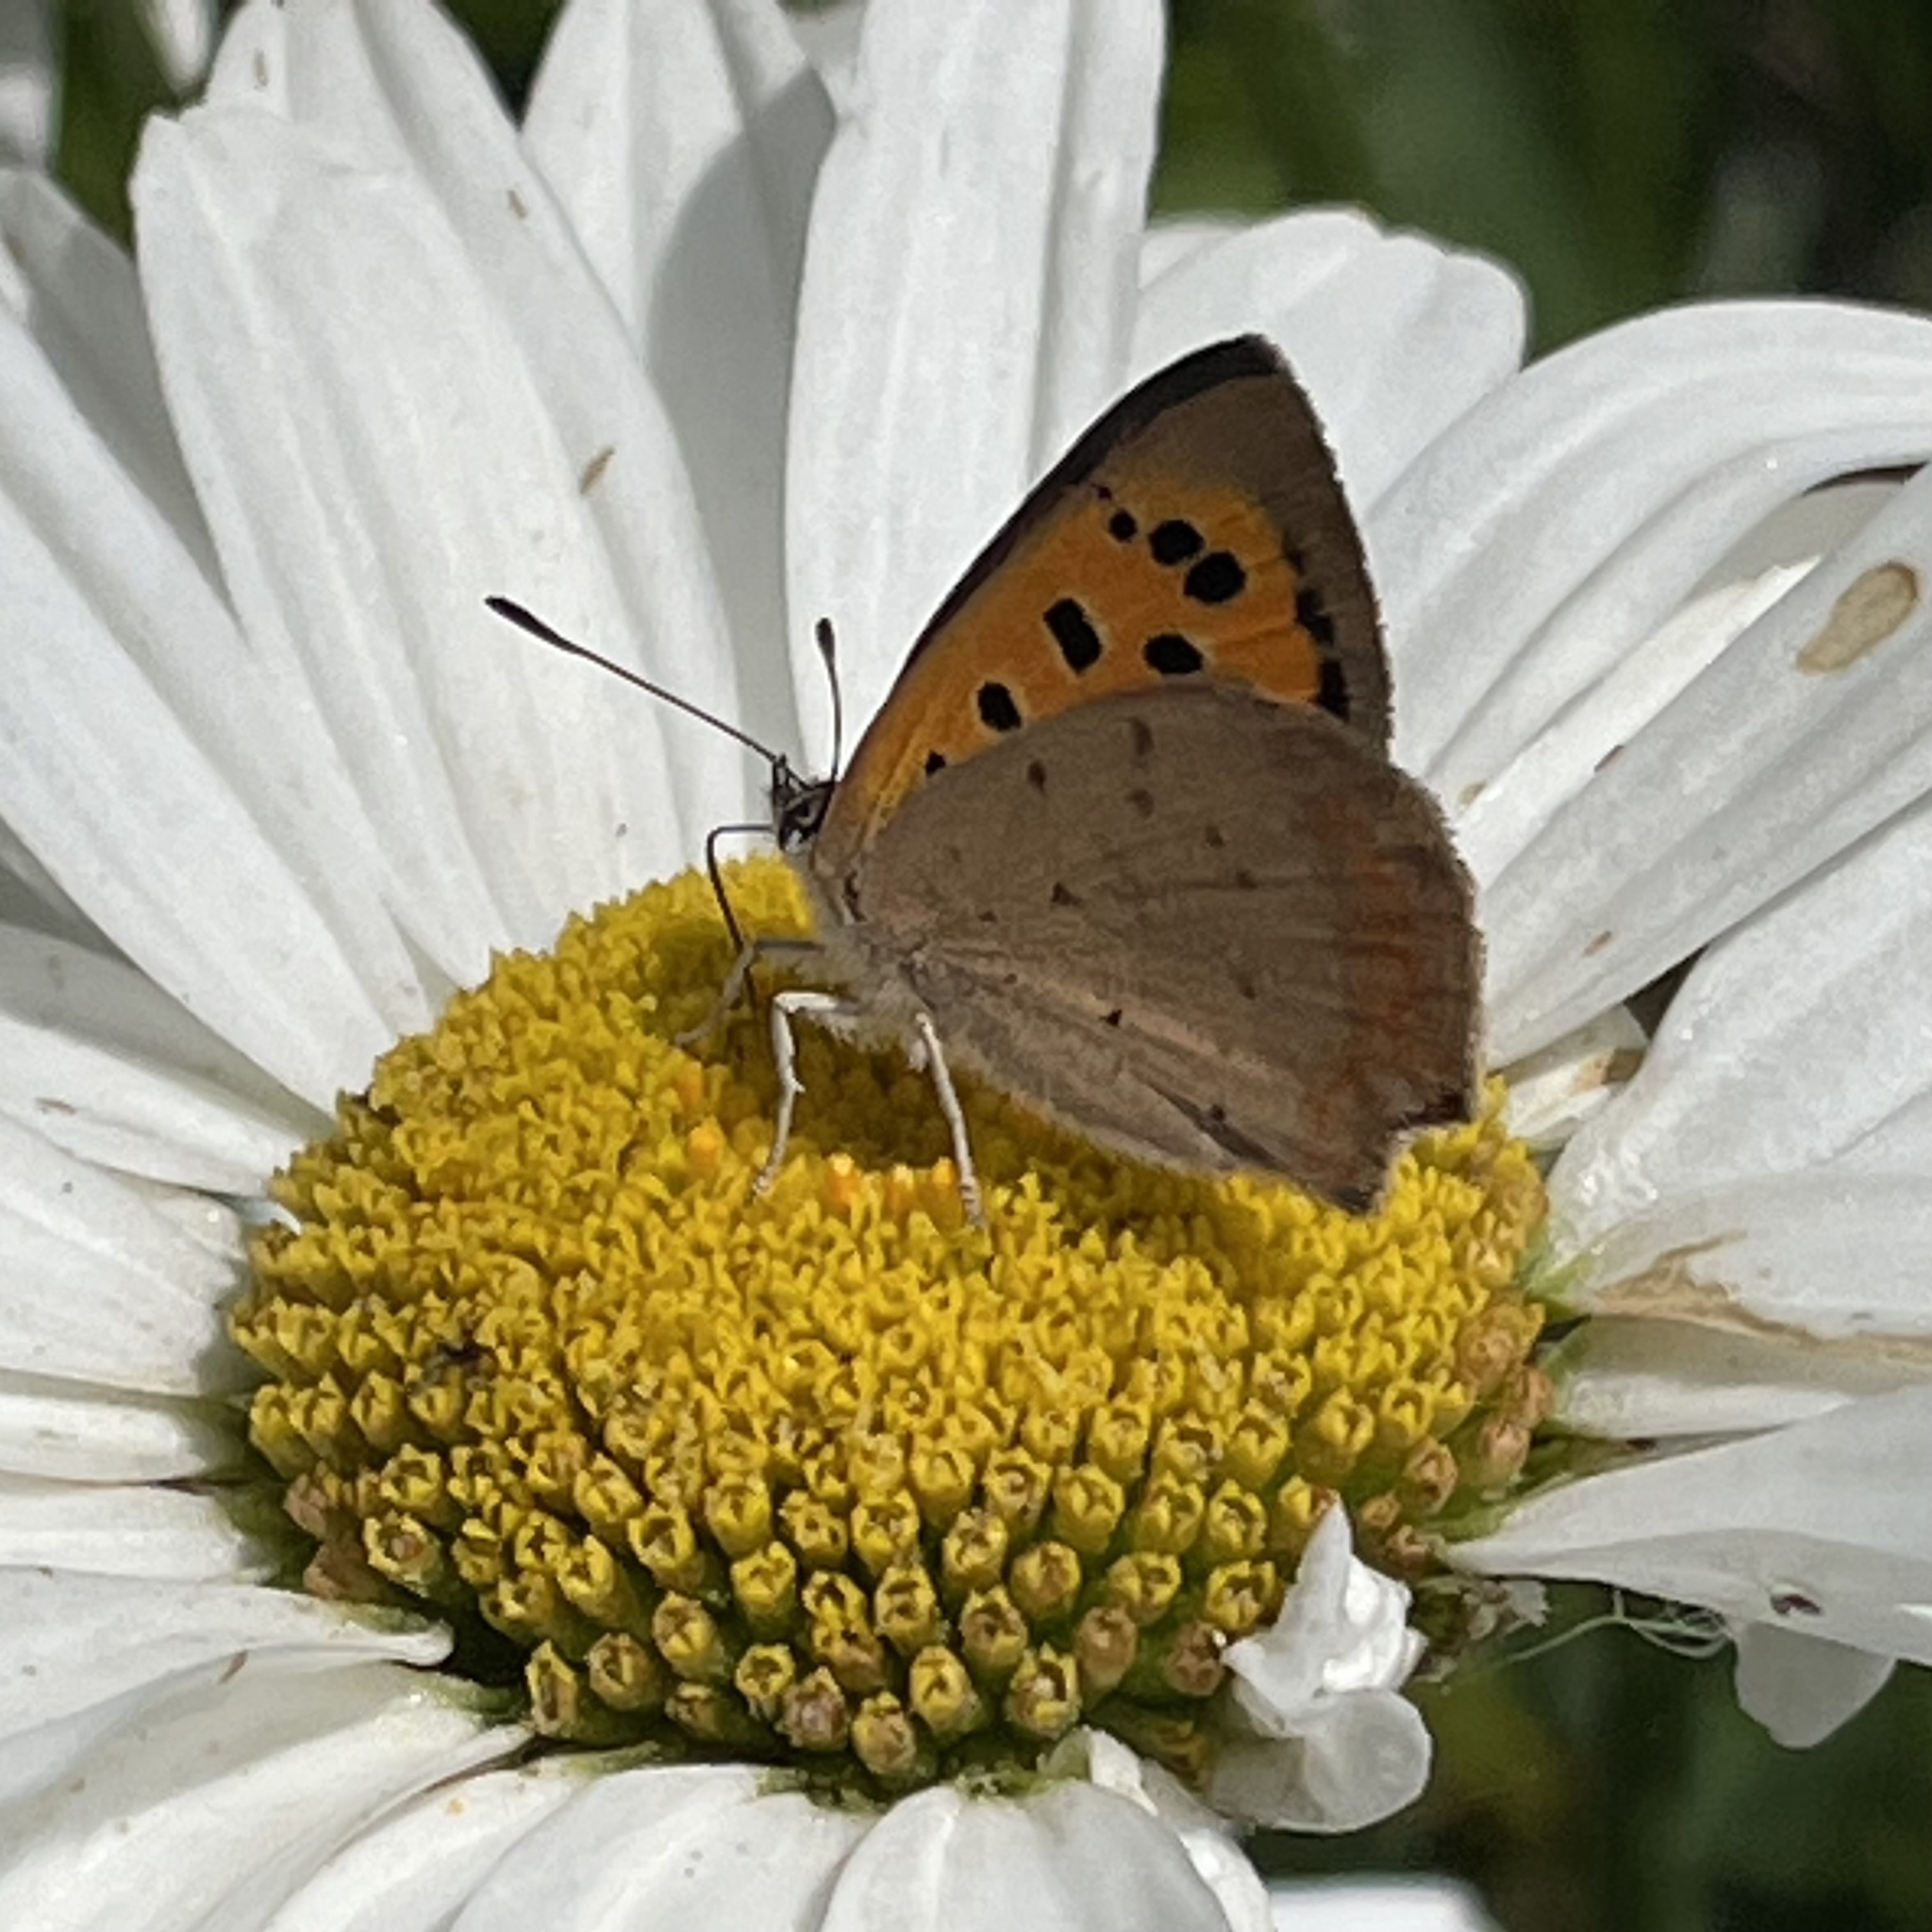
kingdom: Animalia
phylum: Arthropoda
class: Insecta
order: Lepidoptera
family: Lycaenidae
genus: Lycaena
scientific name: Lycaena phlaeas
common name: Small copper
